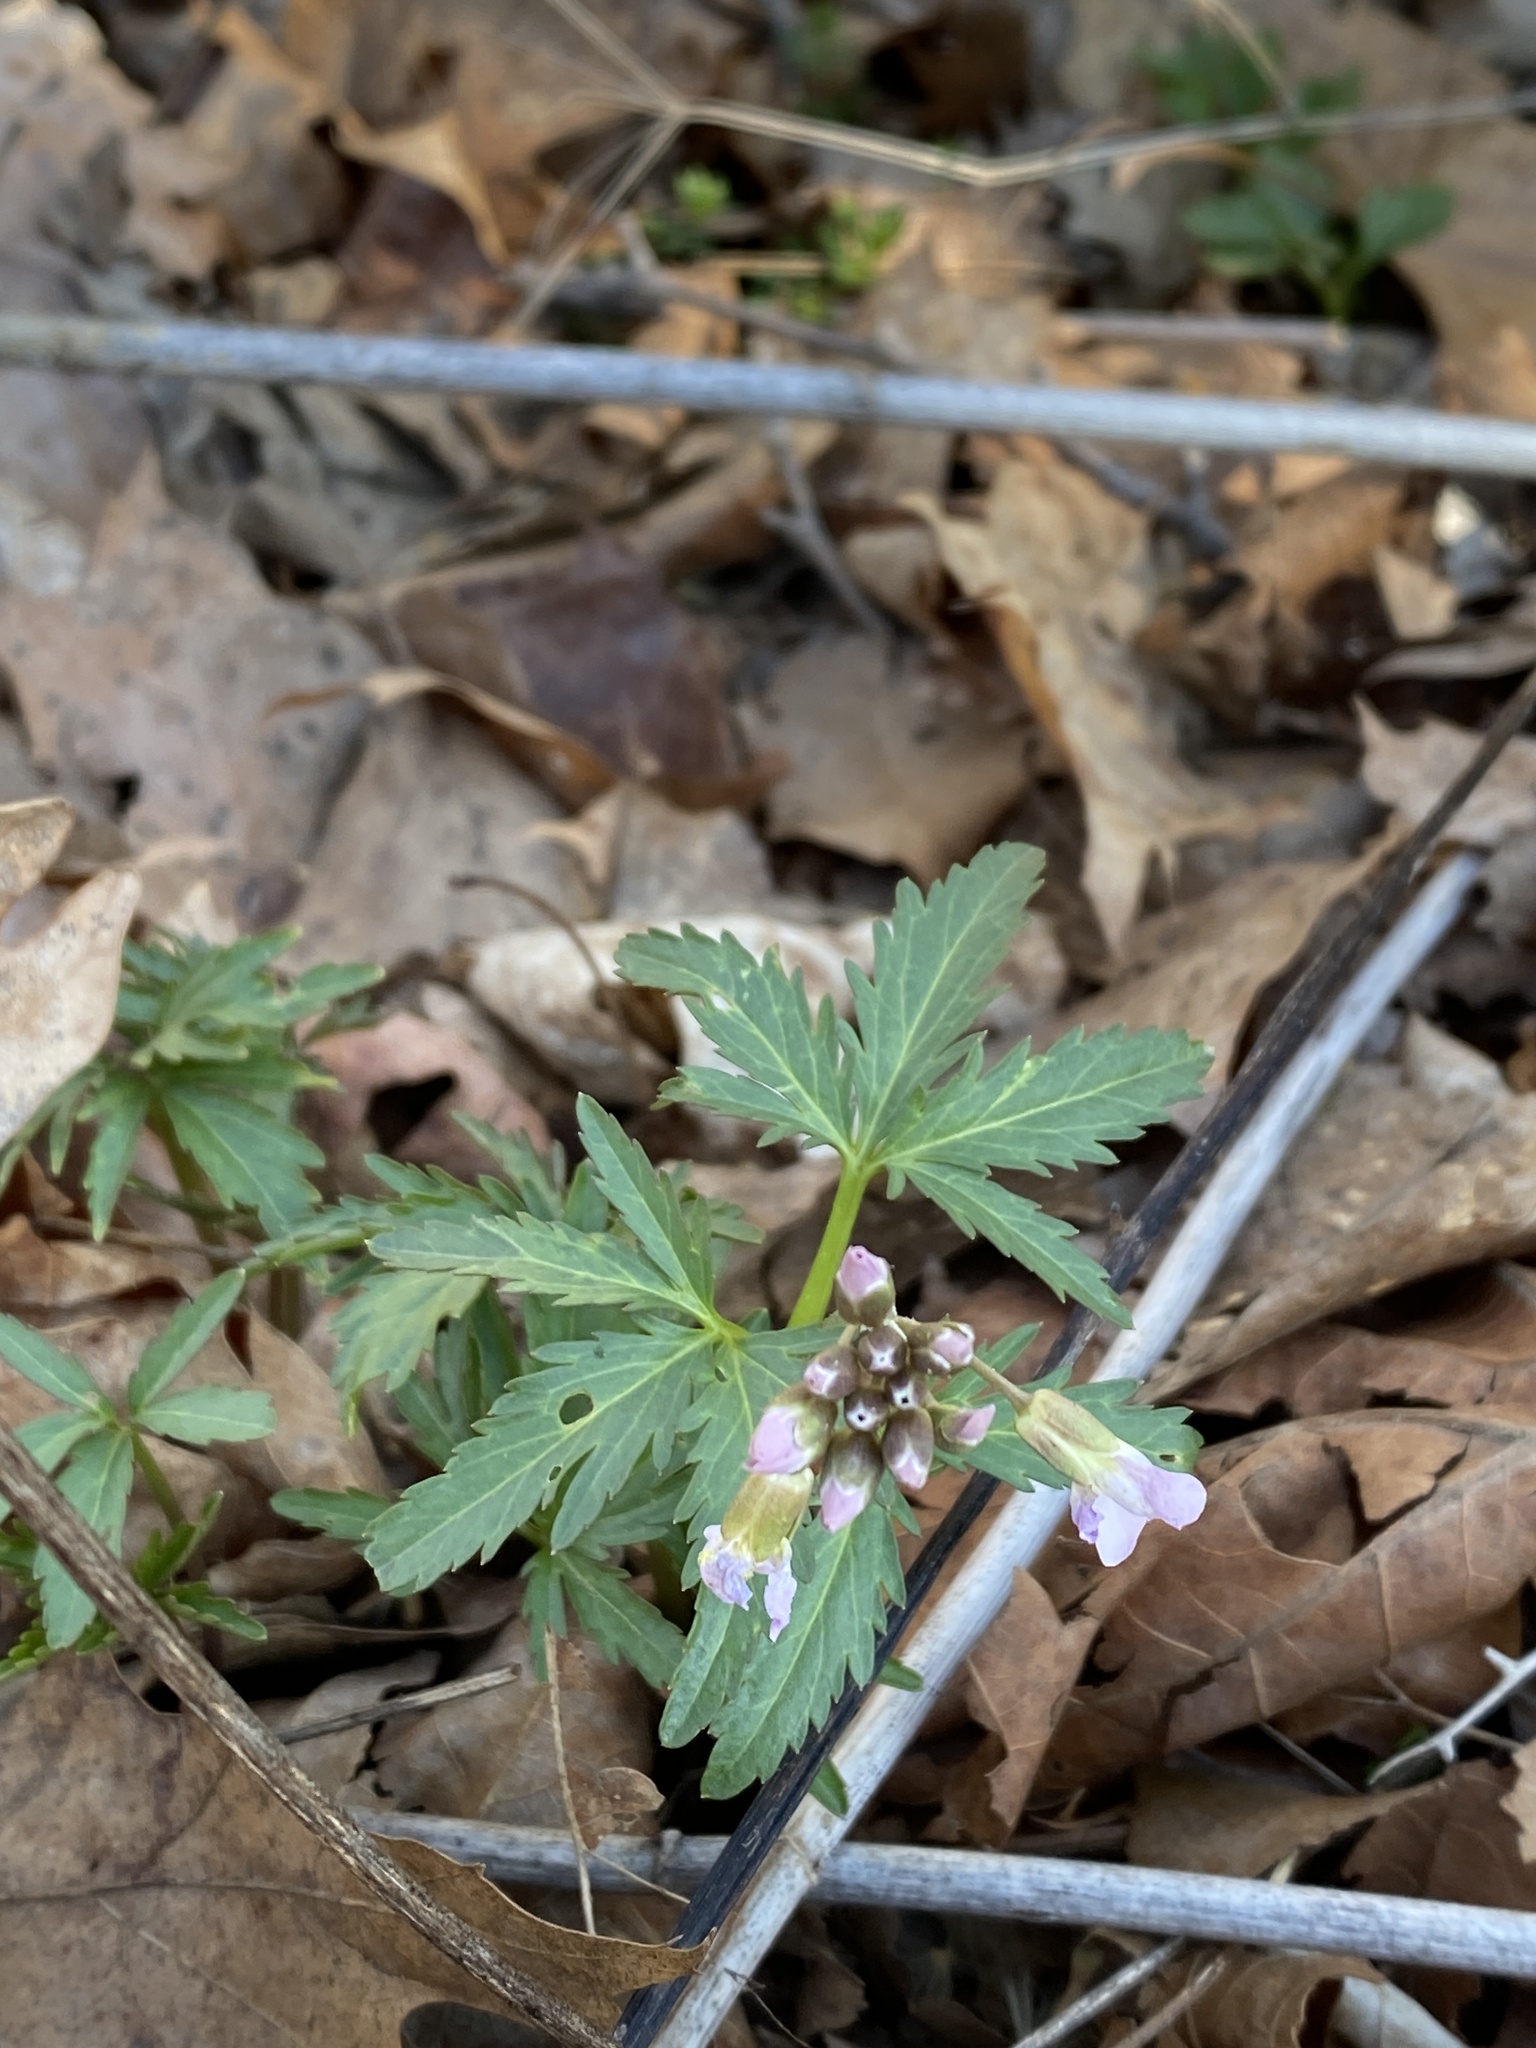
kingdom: Plantae
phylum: Tracheophyta
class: Magnoliopsida
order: Brassicales
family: Brassicaceae
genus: Cardamine
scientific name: Cardamine concatenata
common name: Cut-leaf toothcup
